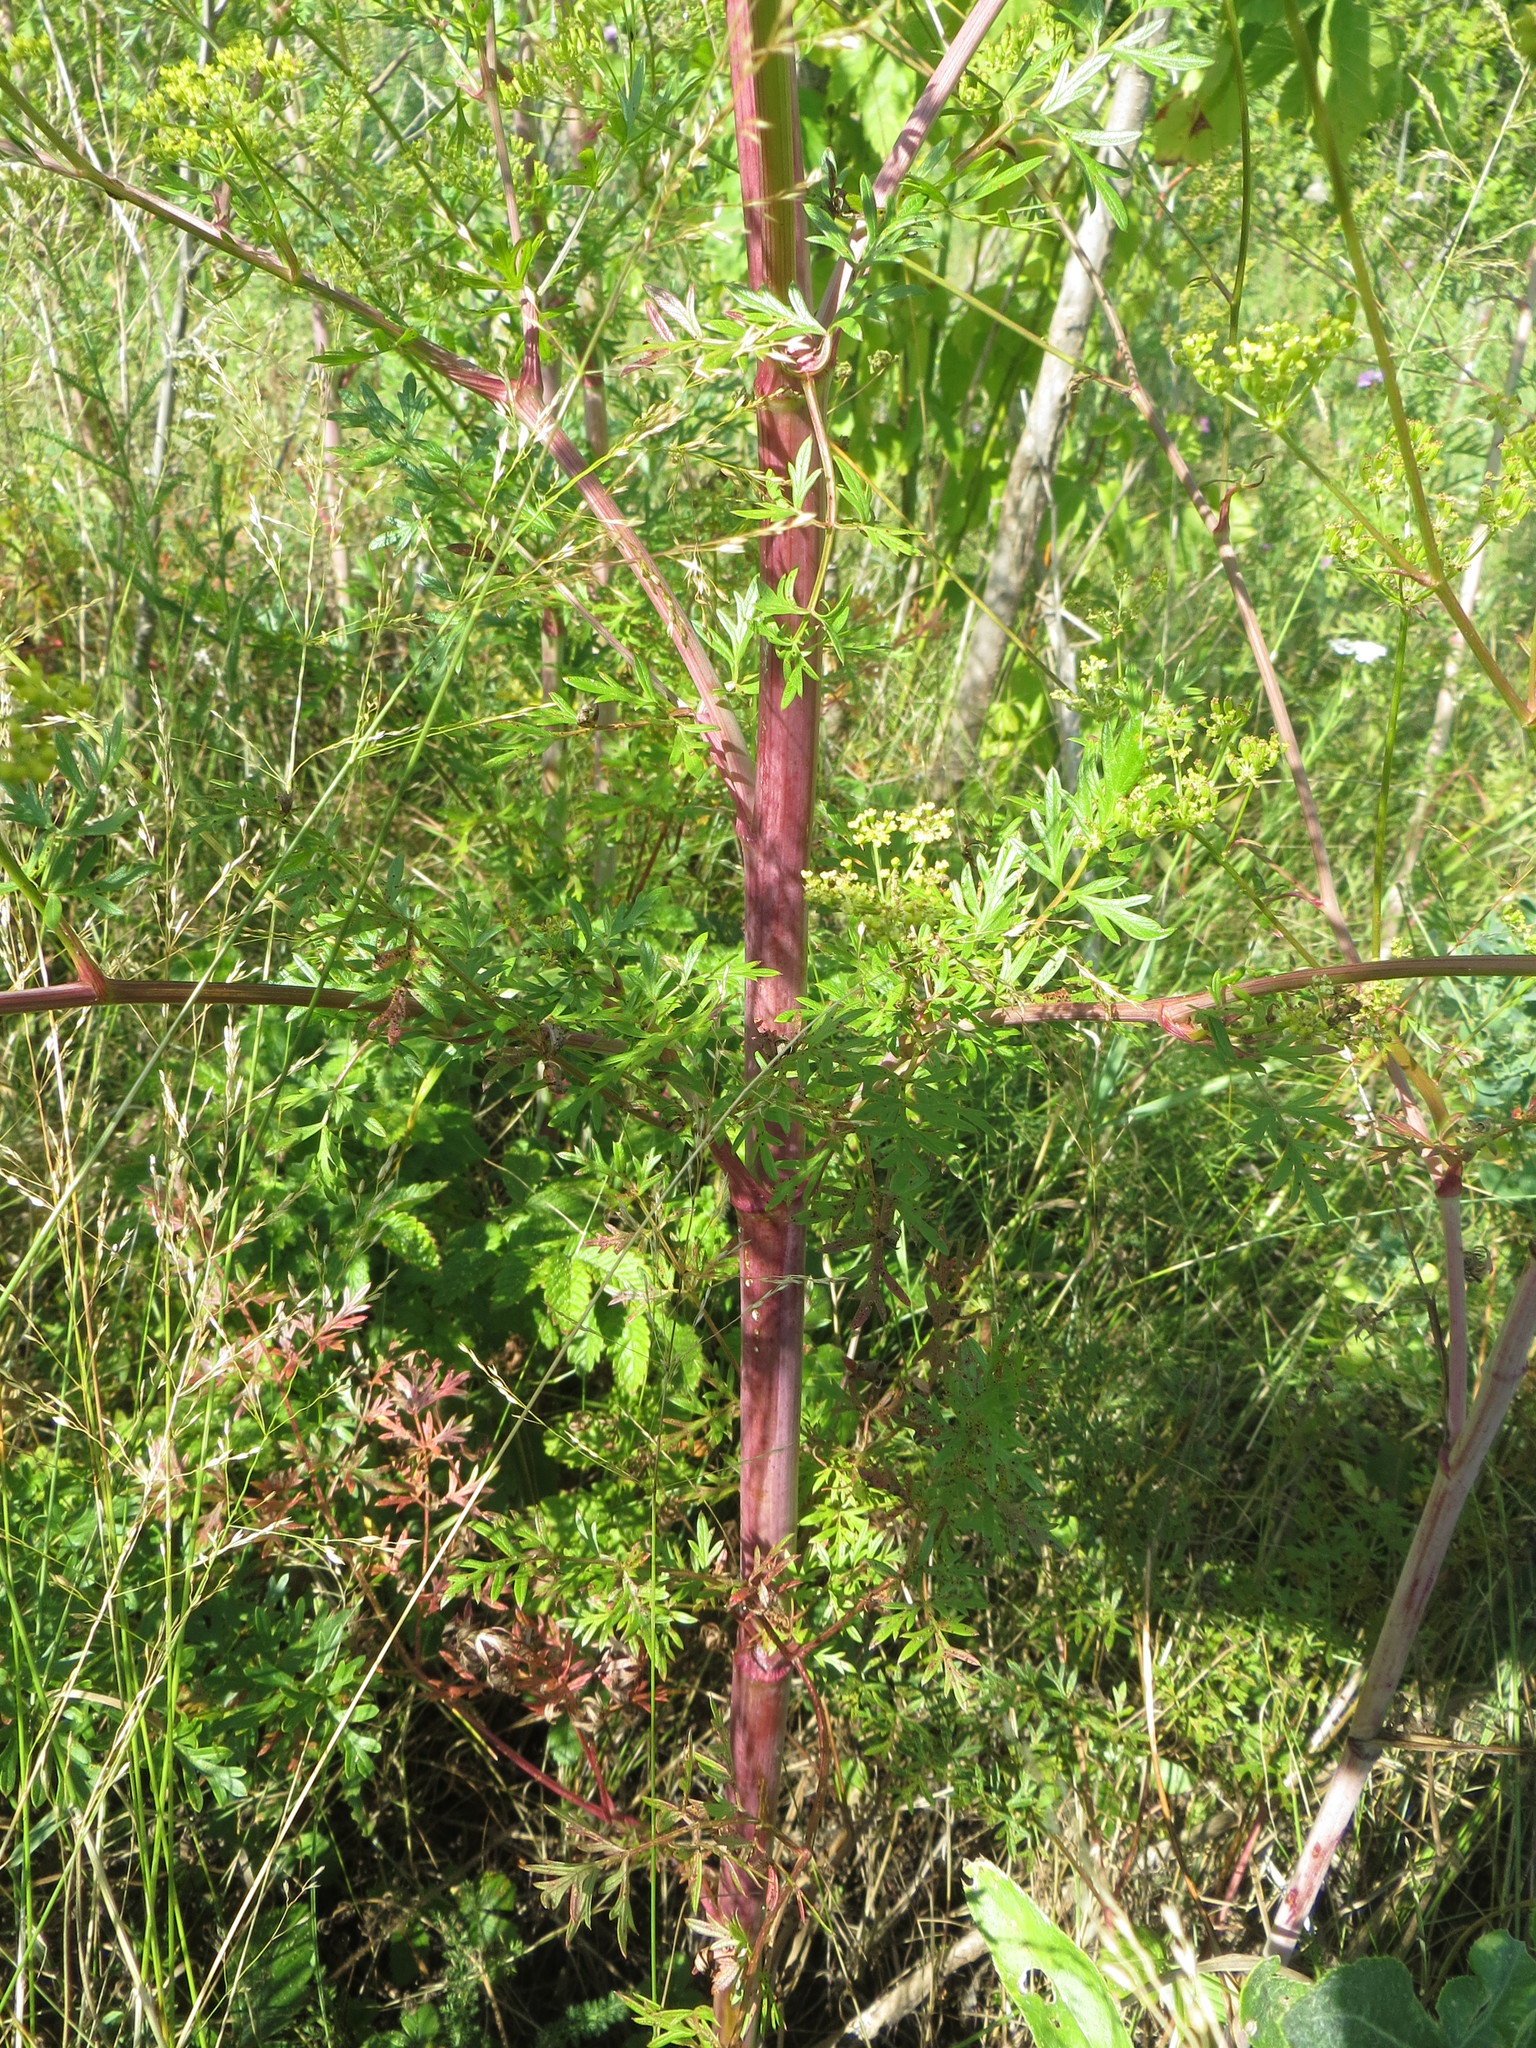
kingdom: Plantae
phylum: Tracheophyta
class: Magnoliopsida
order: Apiales
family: Apiaceae
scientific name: Apiaceae
